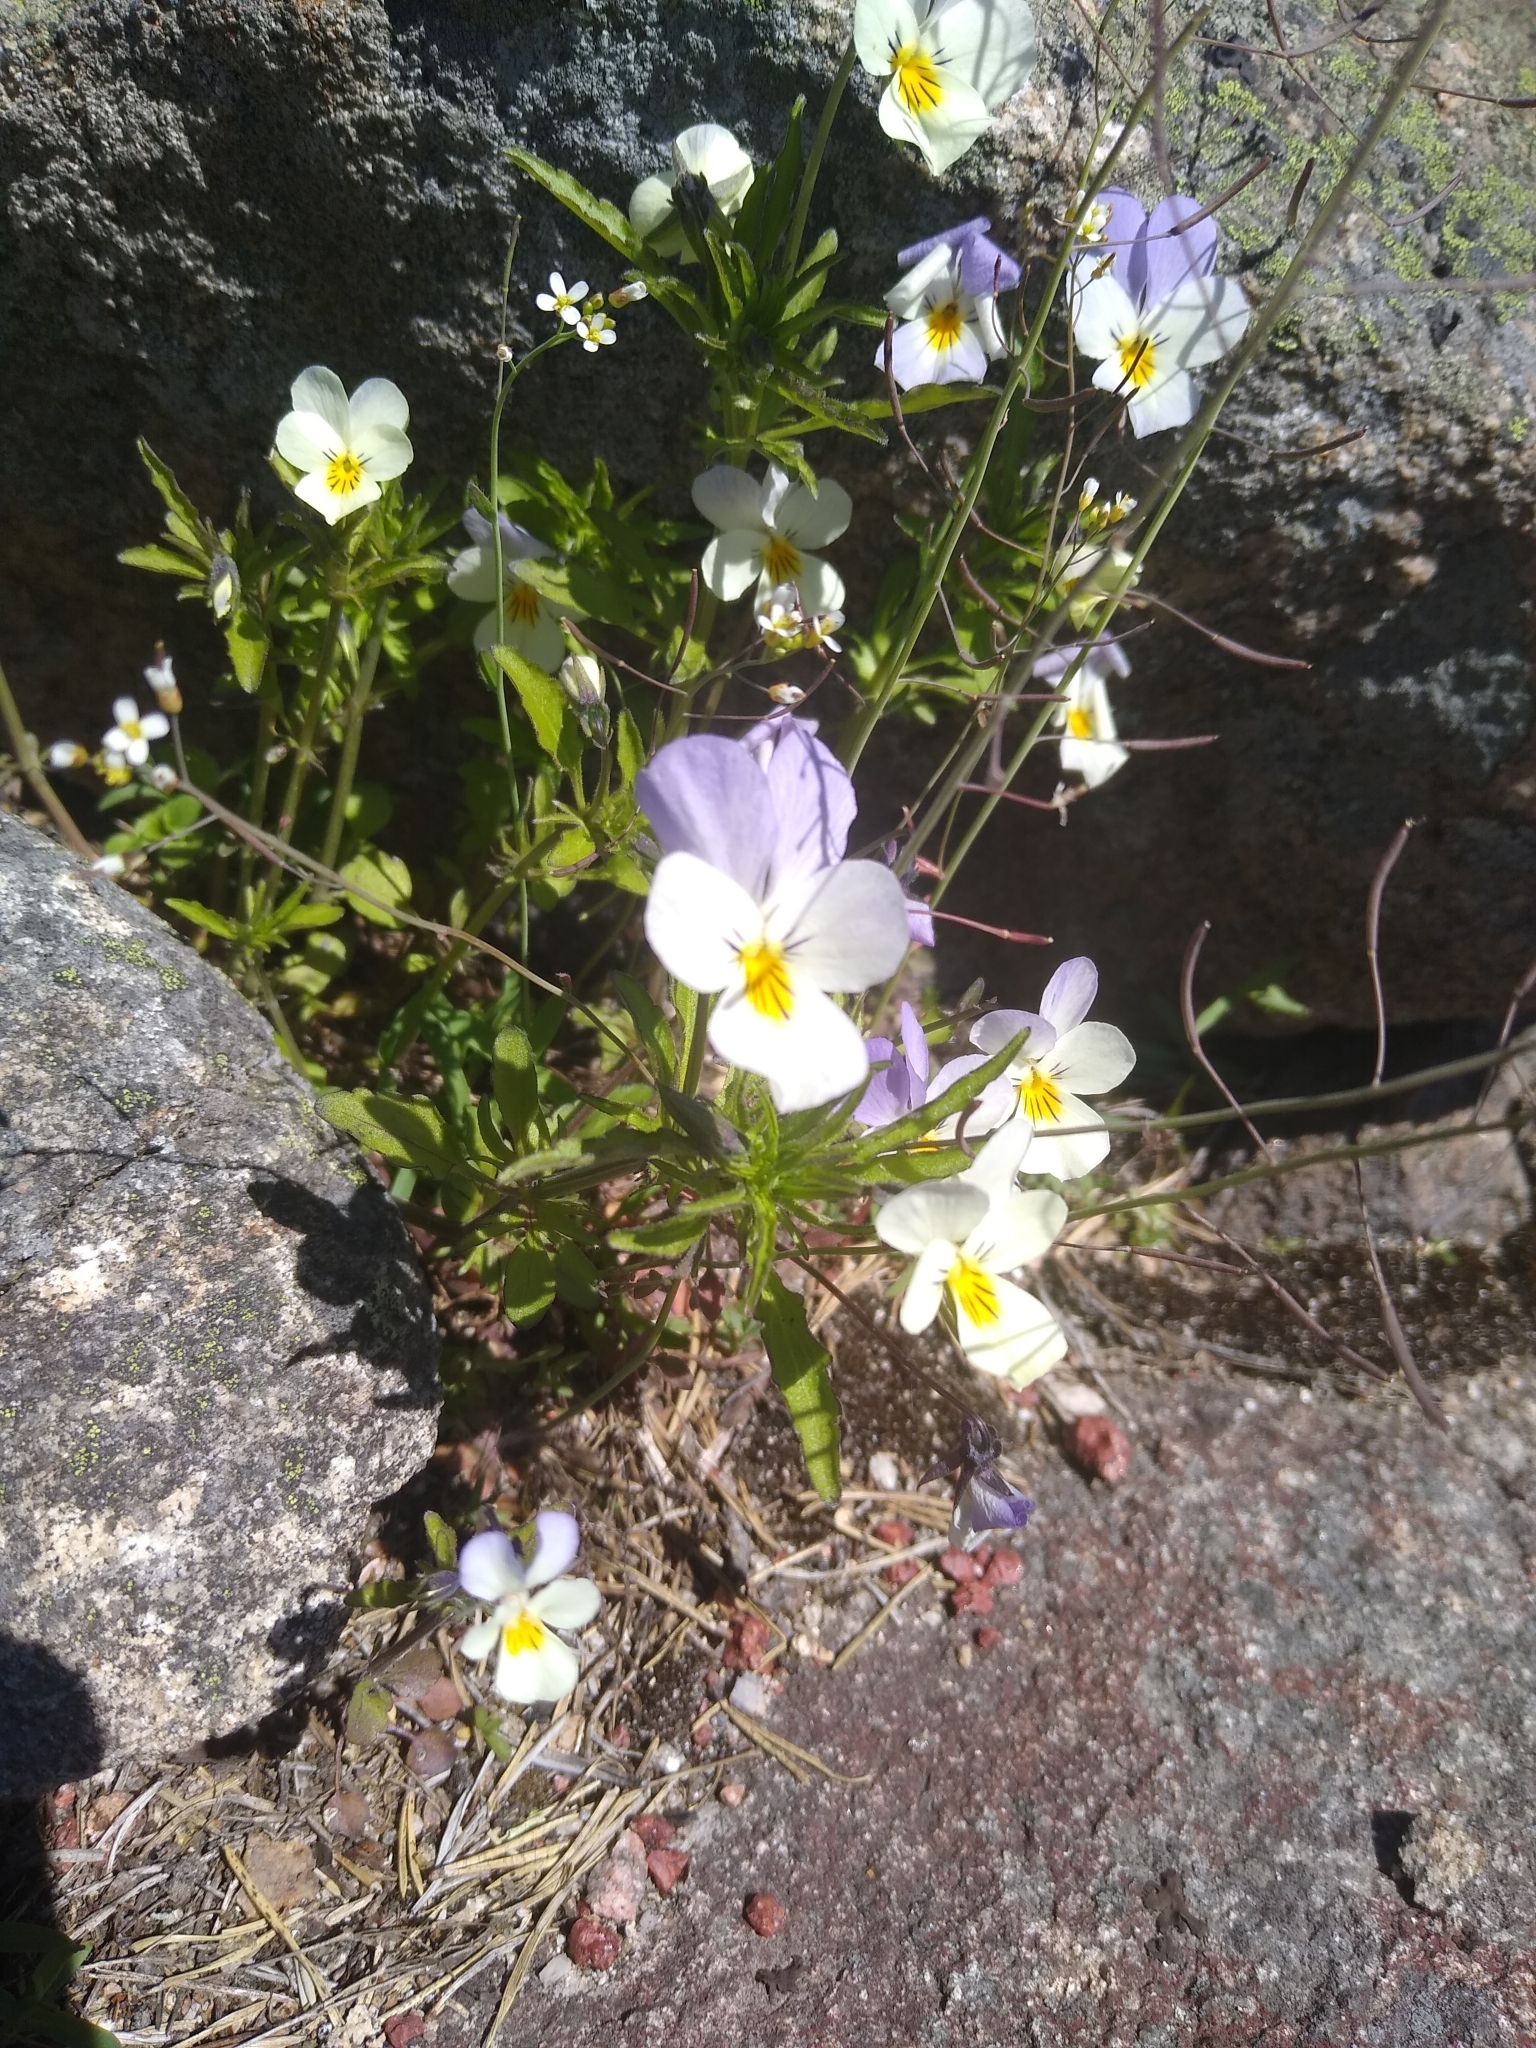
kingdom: Plantae
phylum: Tracheophyta
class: Magnoliopsida
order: Malpighiales
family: Violaceae
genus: Viola
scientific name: Viola tricolor
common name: Pansy
